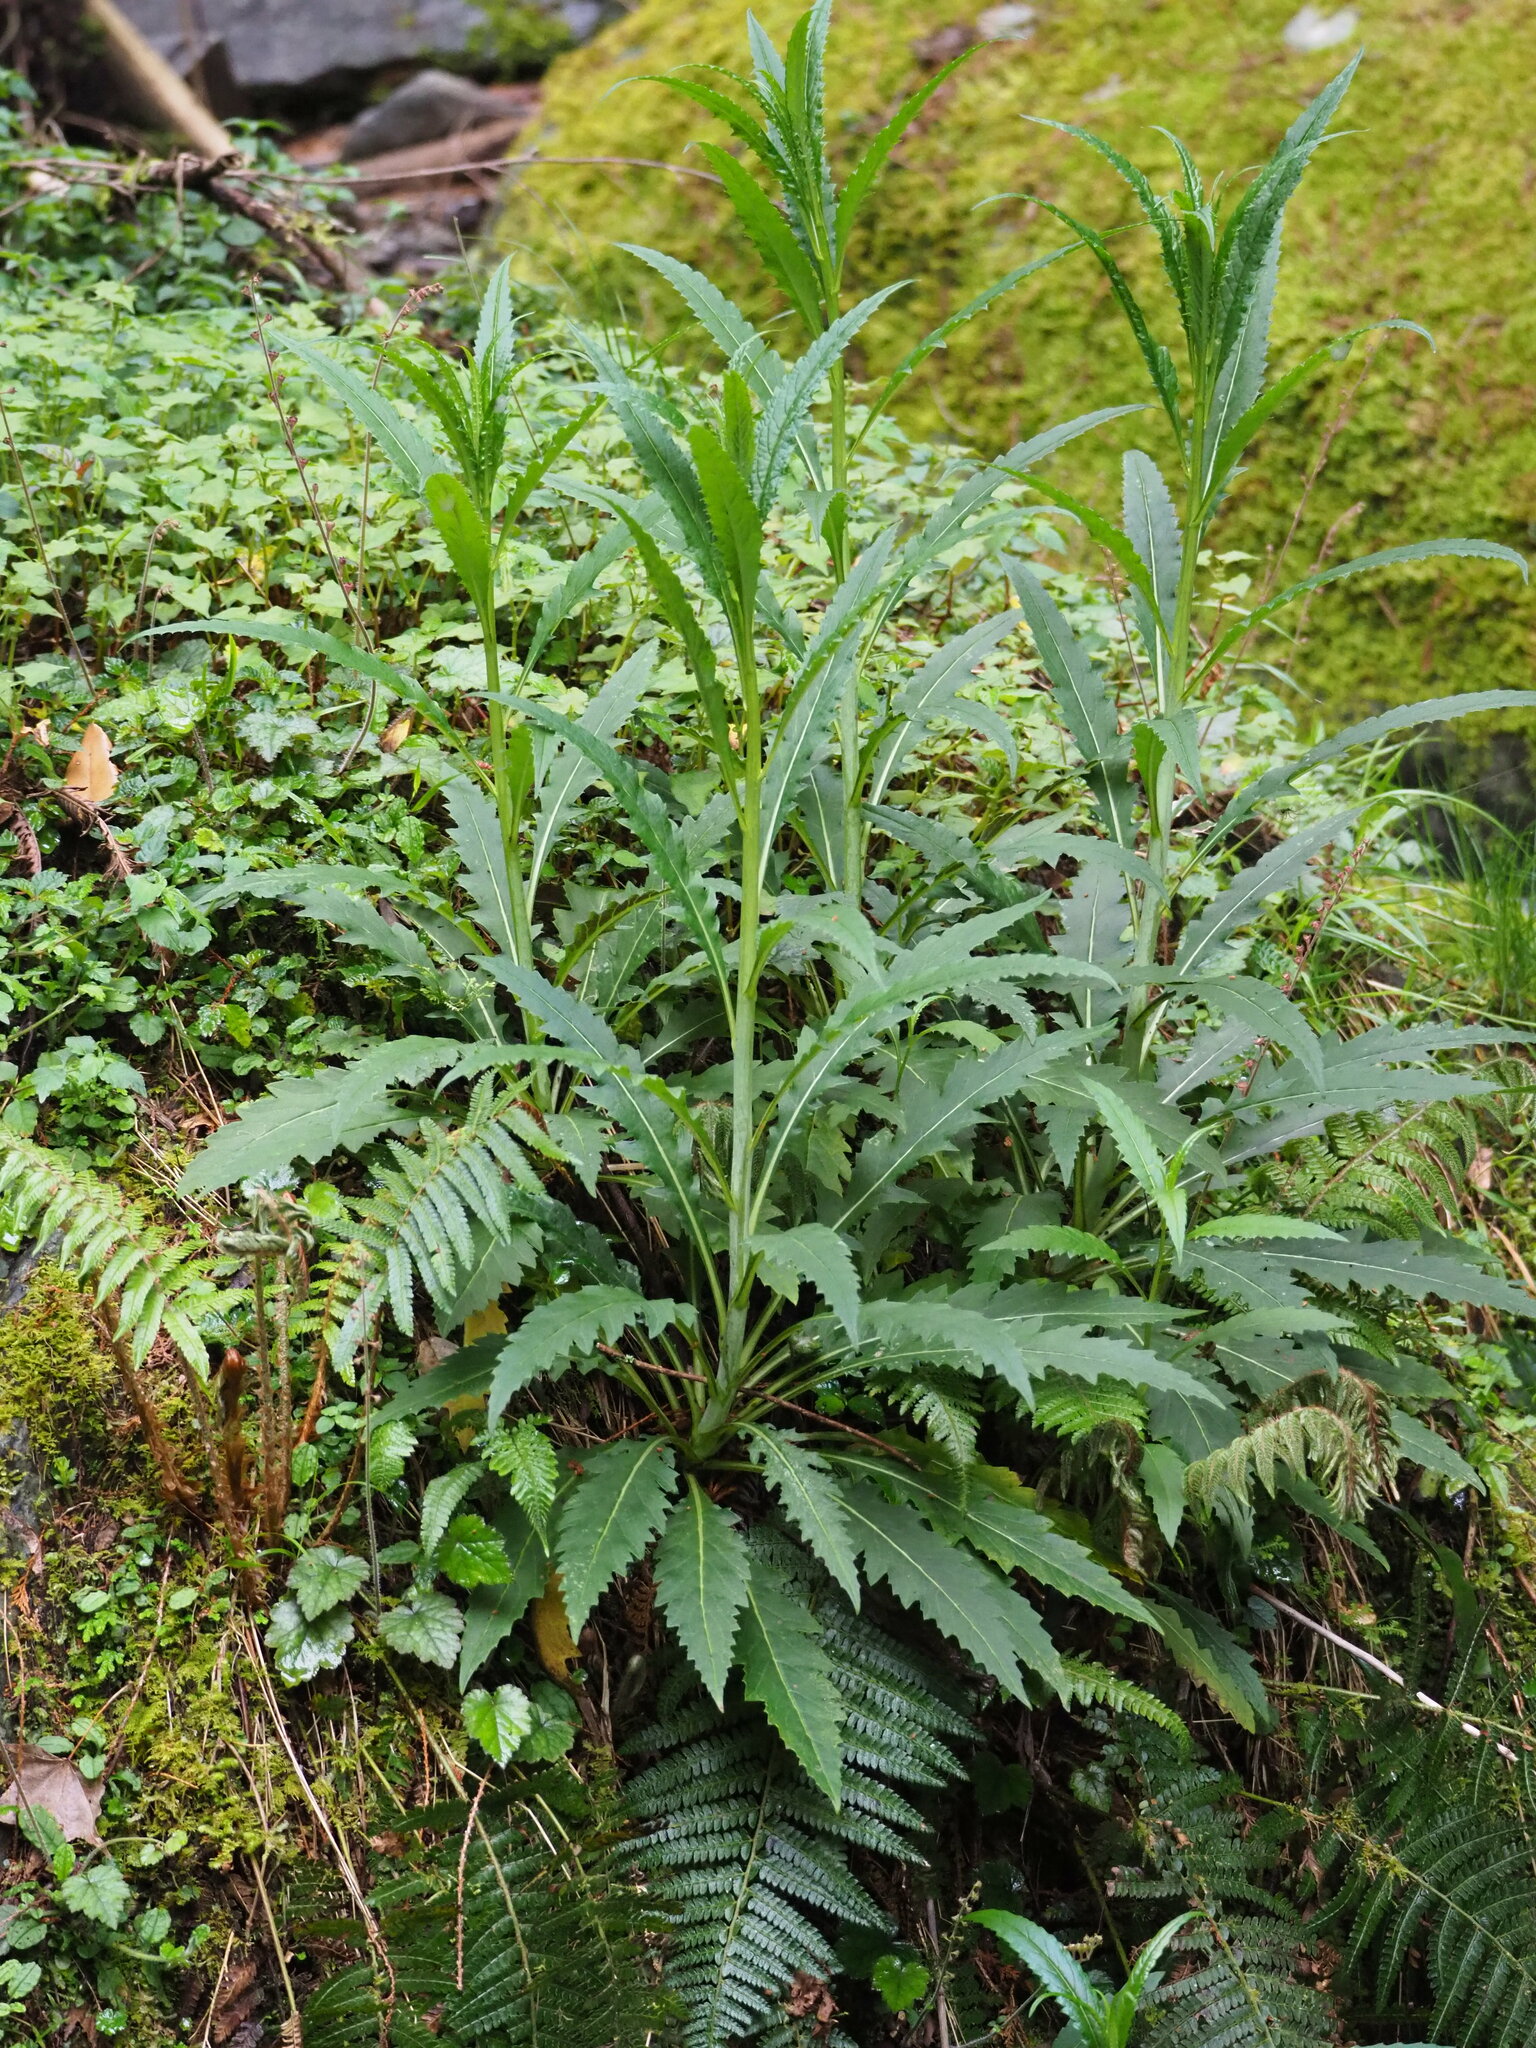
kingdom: Plantae
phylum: Tracheophyta
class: Magnoliopsida
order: Asterales
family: Asteraceae
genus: Senecio
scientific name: Senecio nemorensis
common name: Alpine ragwort
